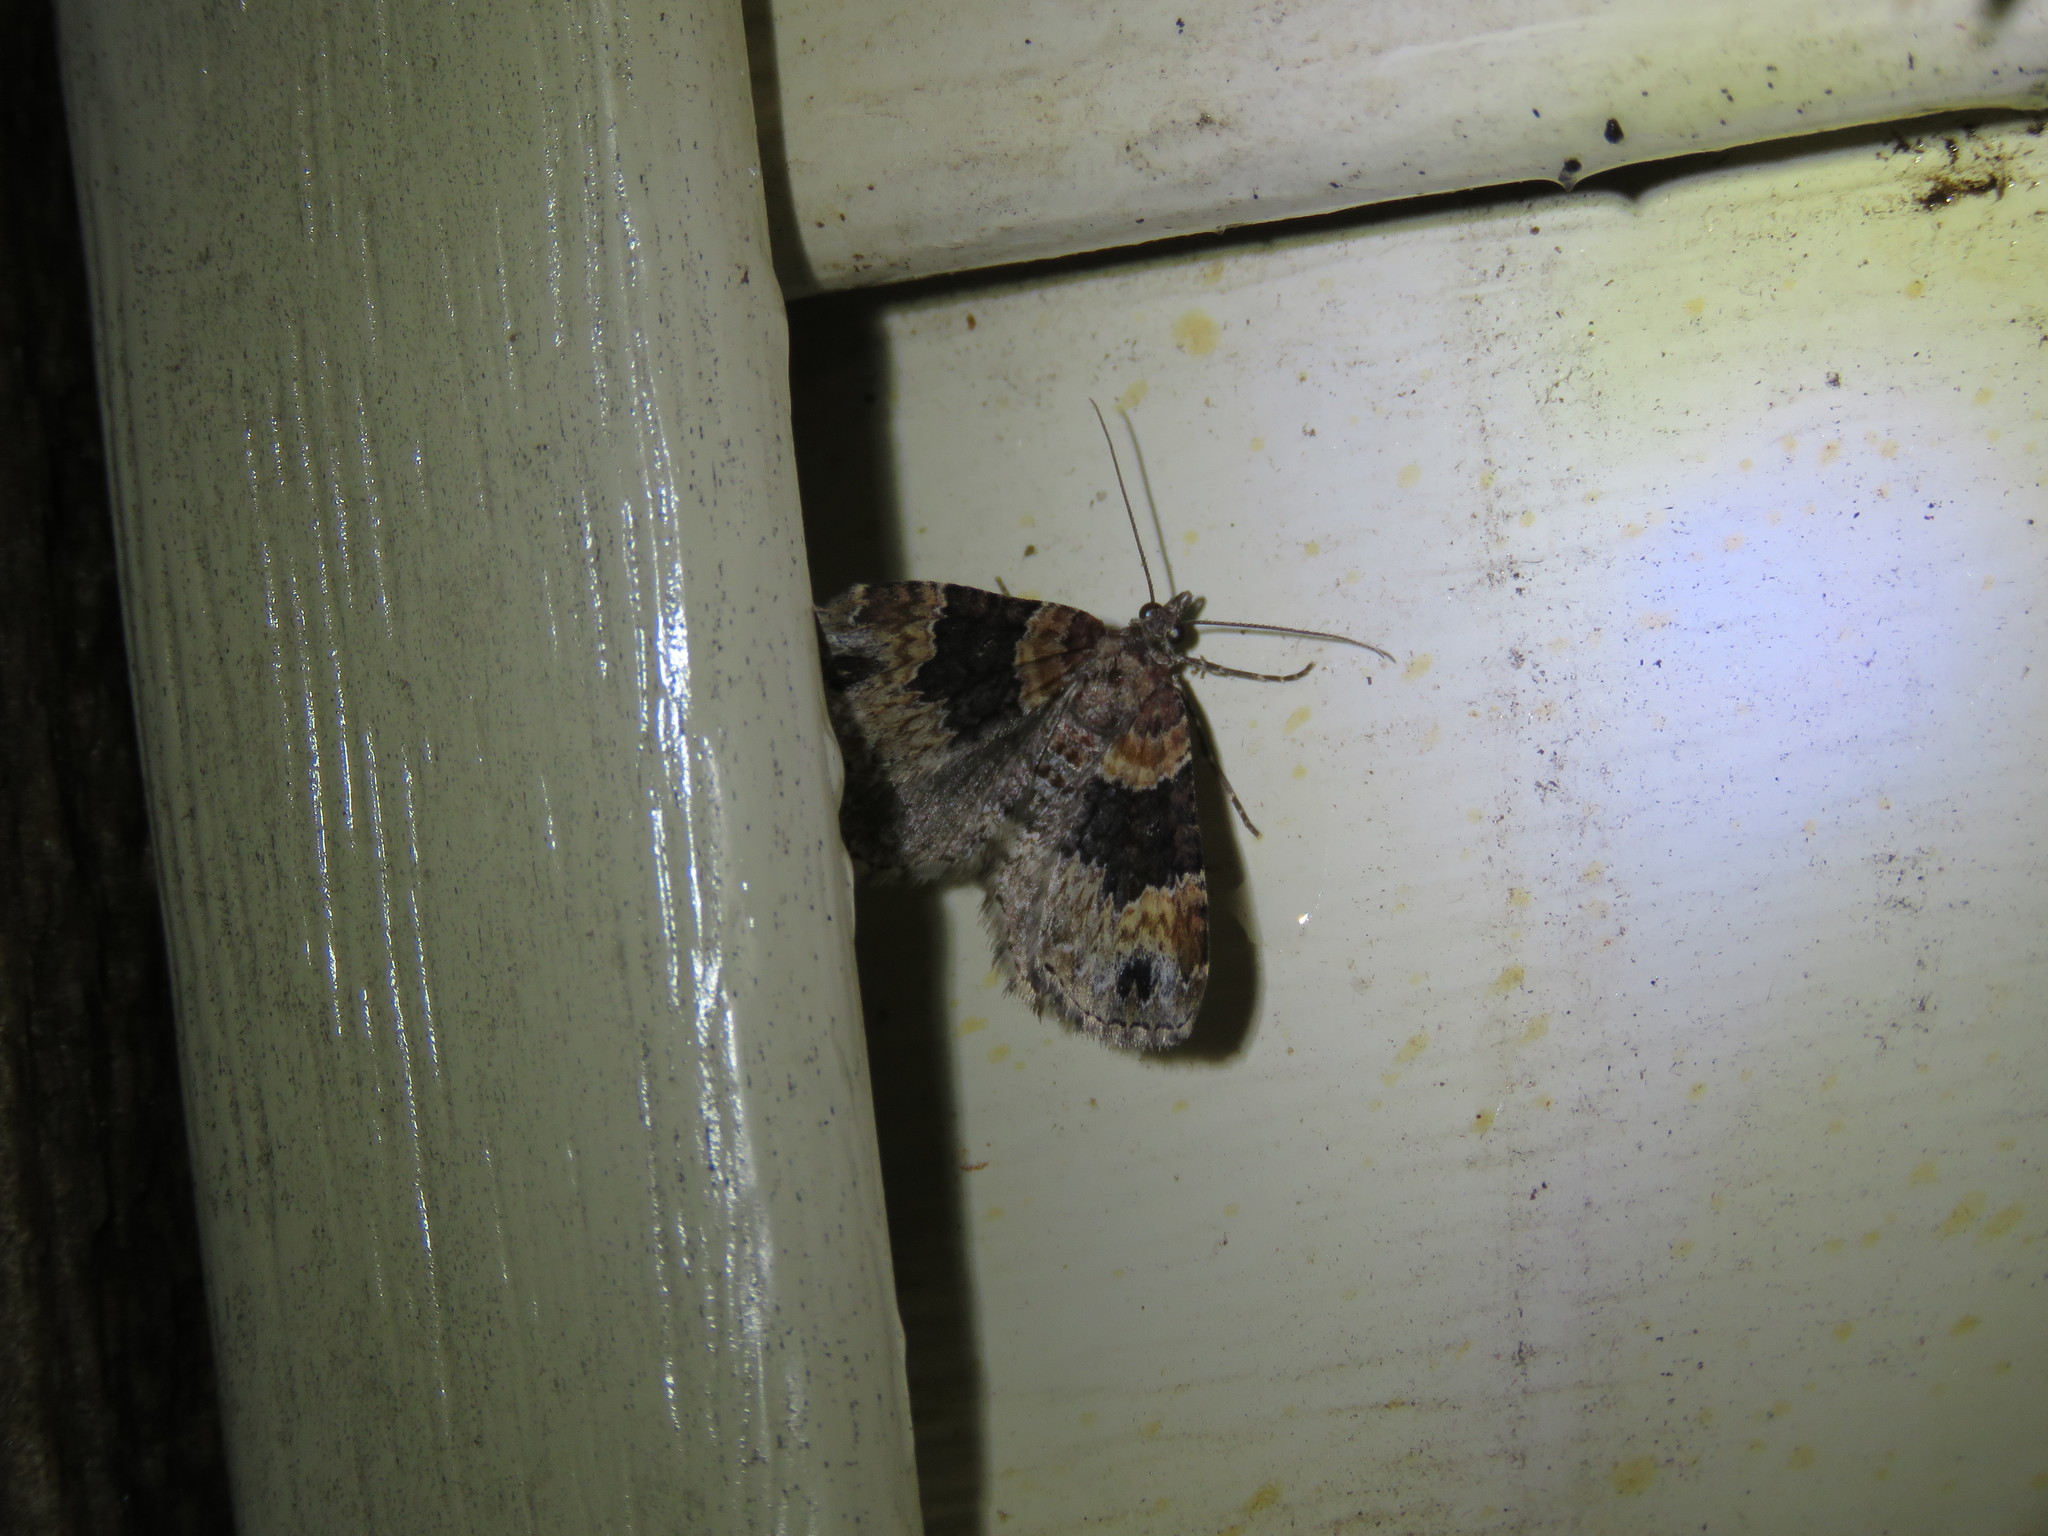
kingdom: Animalia
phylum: Arthropoda
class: Insecta
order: Lepidoptera
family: Geometridae
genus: Xanthorhoe
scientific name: Xanthorhoe ferrugata
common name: Dark-barred twin-spot carpet
